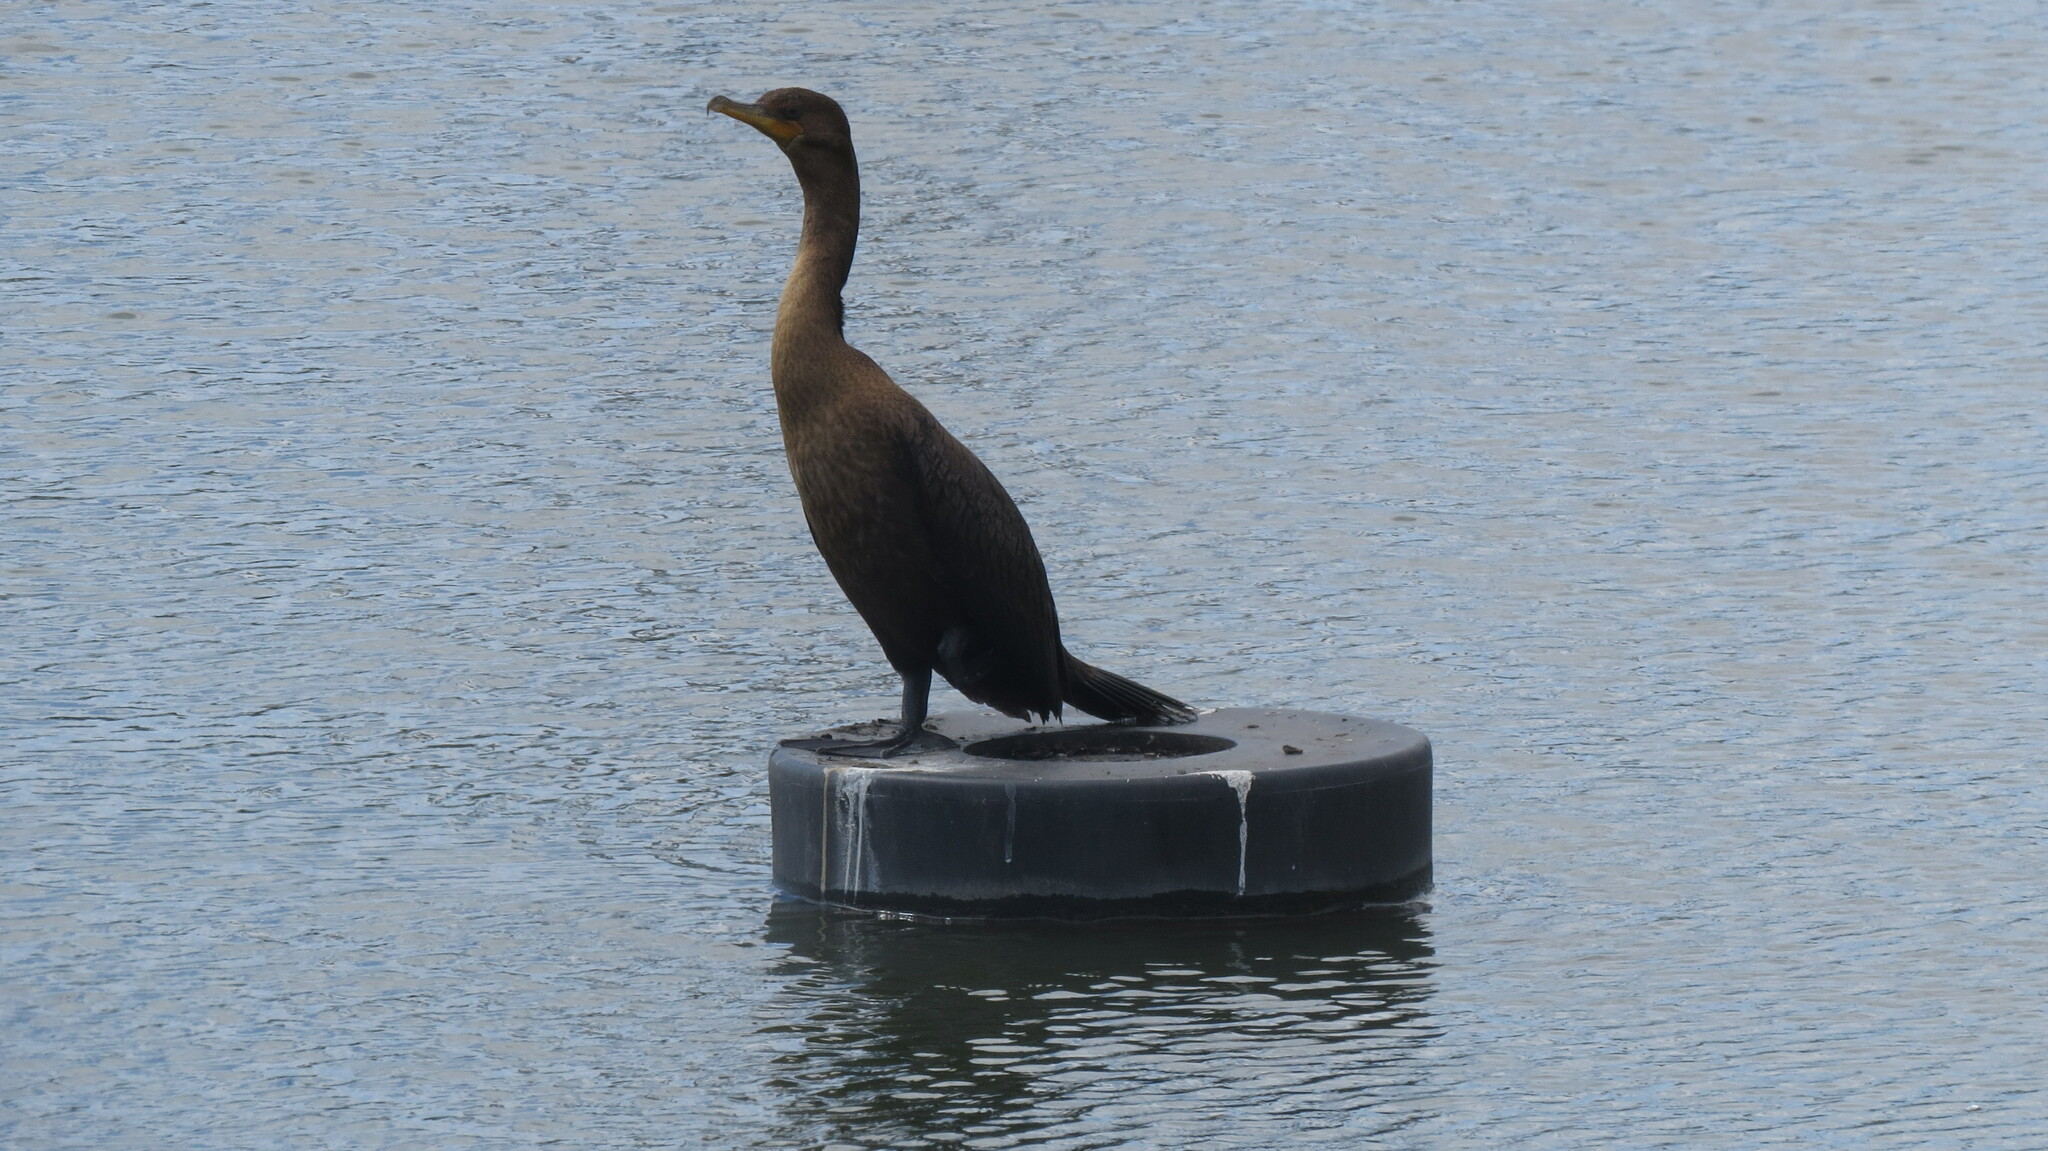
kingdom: Animalia
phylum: Chordata
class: Aves
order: Suliformes
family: Phalacrocoracidae
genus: Phalacrocorax
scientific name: Phalacrocorax auritus
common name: Double-crested cormorant
